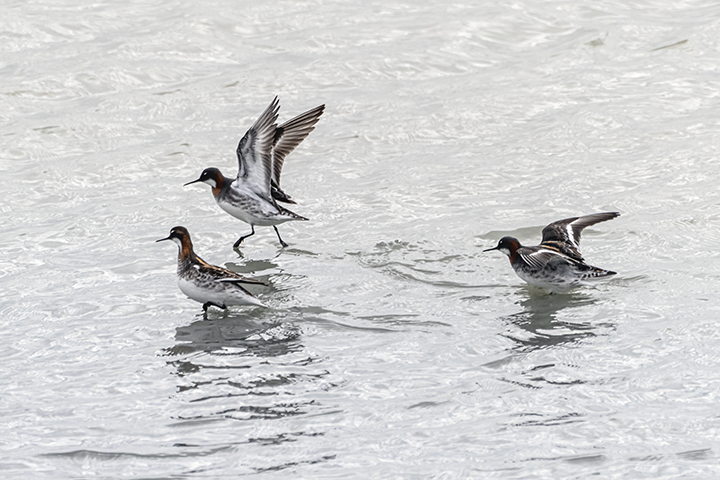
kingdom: Animalia
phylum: Chordata
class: Aves
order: Charadriiformes
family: Scolopacidae
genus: Phalaropus
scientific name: Phalaropus lobatus
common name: Red-necked phalarope
